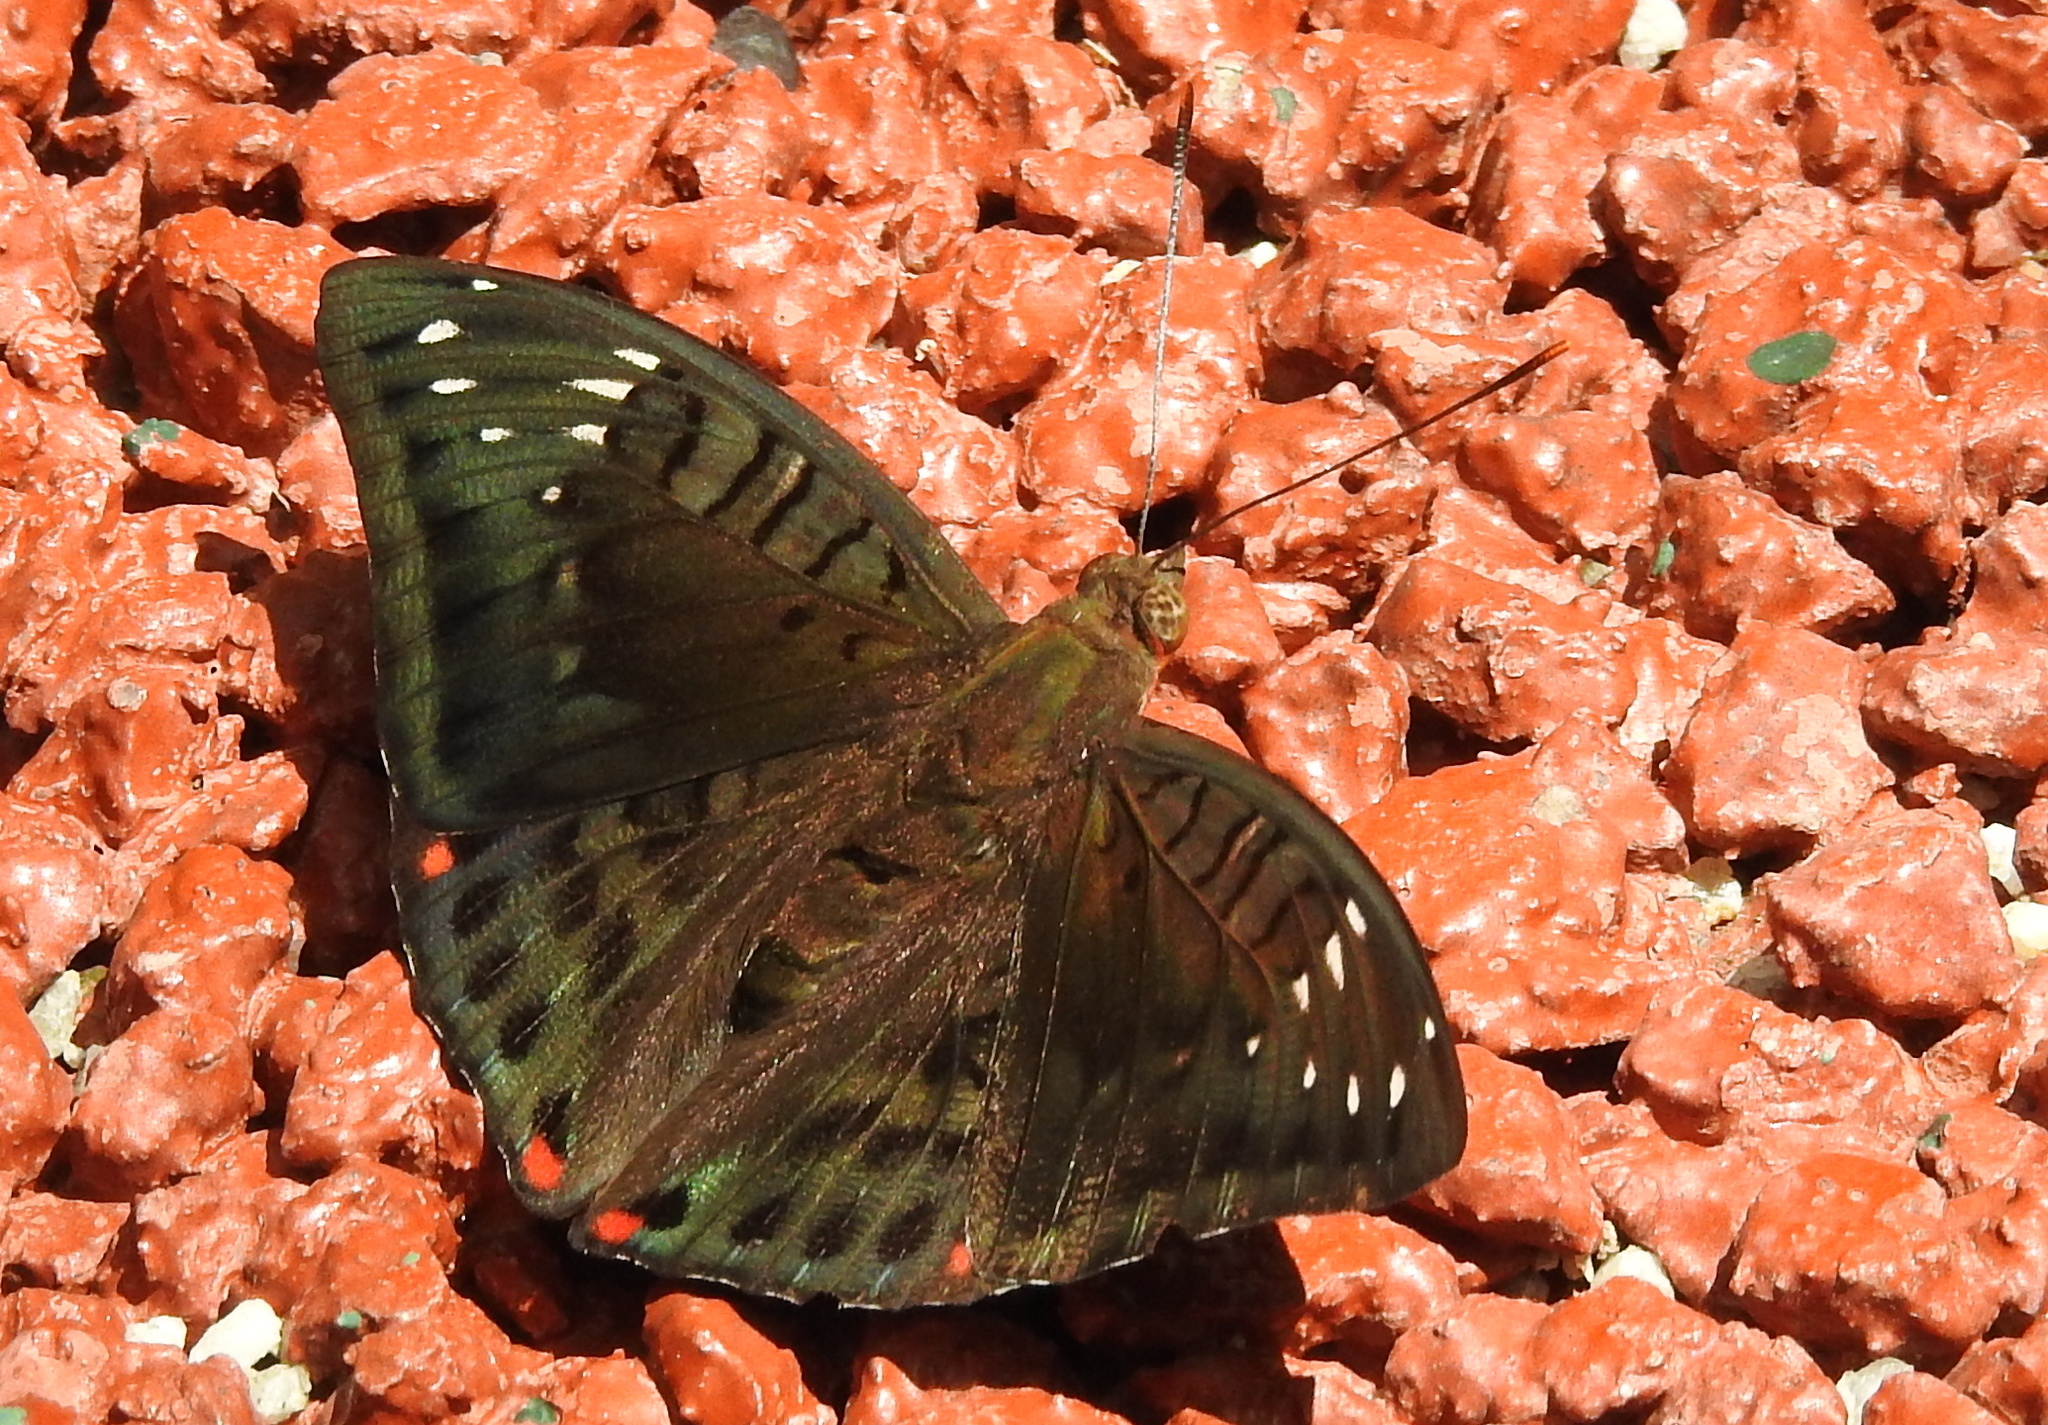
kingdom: Animalia
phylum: Arthropoda
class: Insecta
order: Lepidoptera
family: Nymphalidae
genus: Euthalia
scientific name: Euthalia adonia
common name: Green baron
